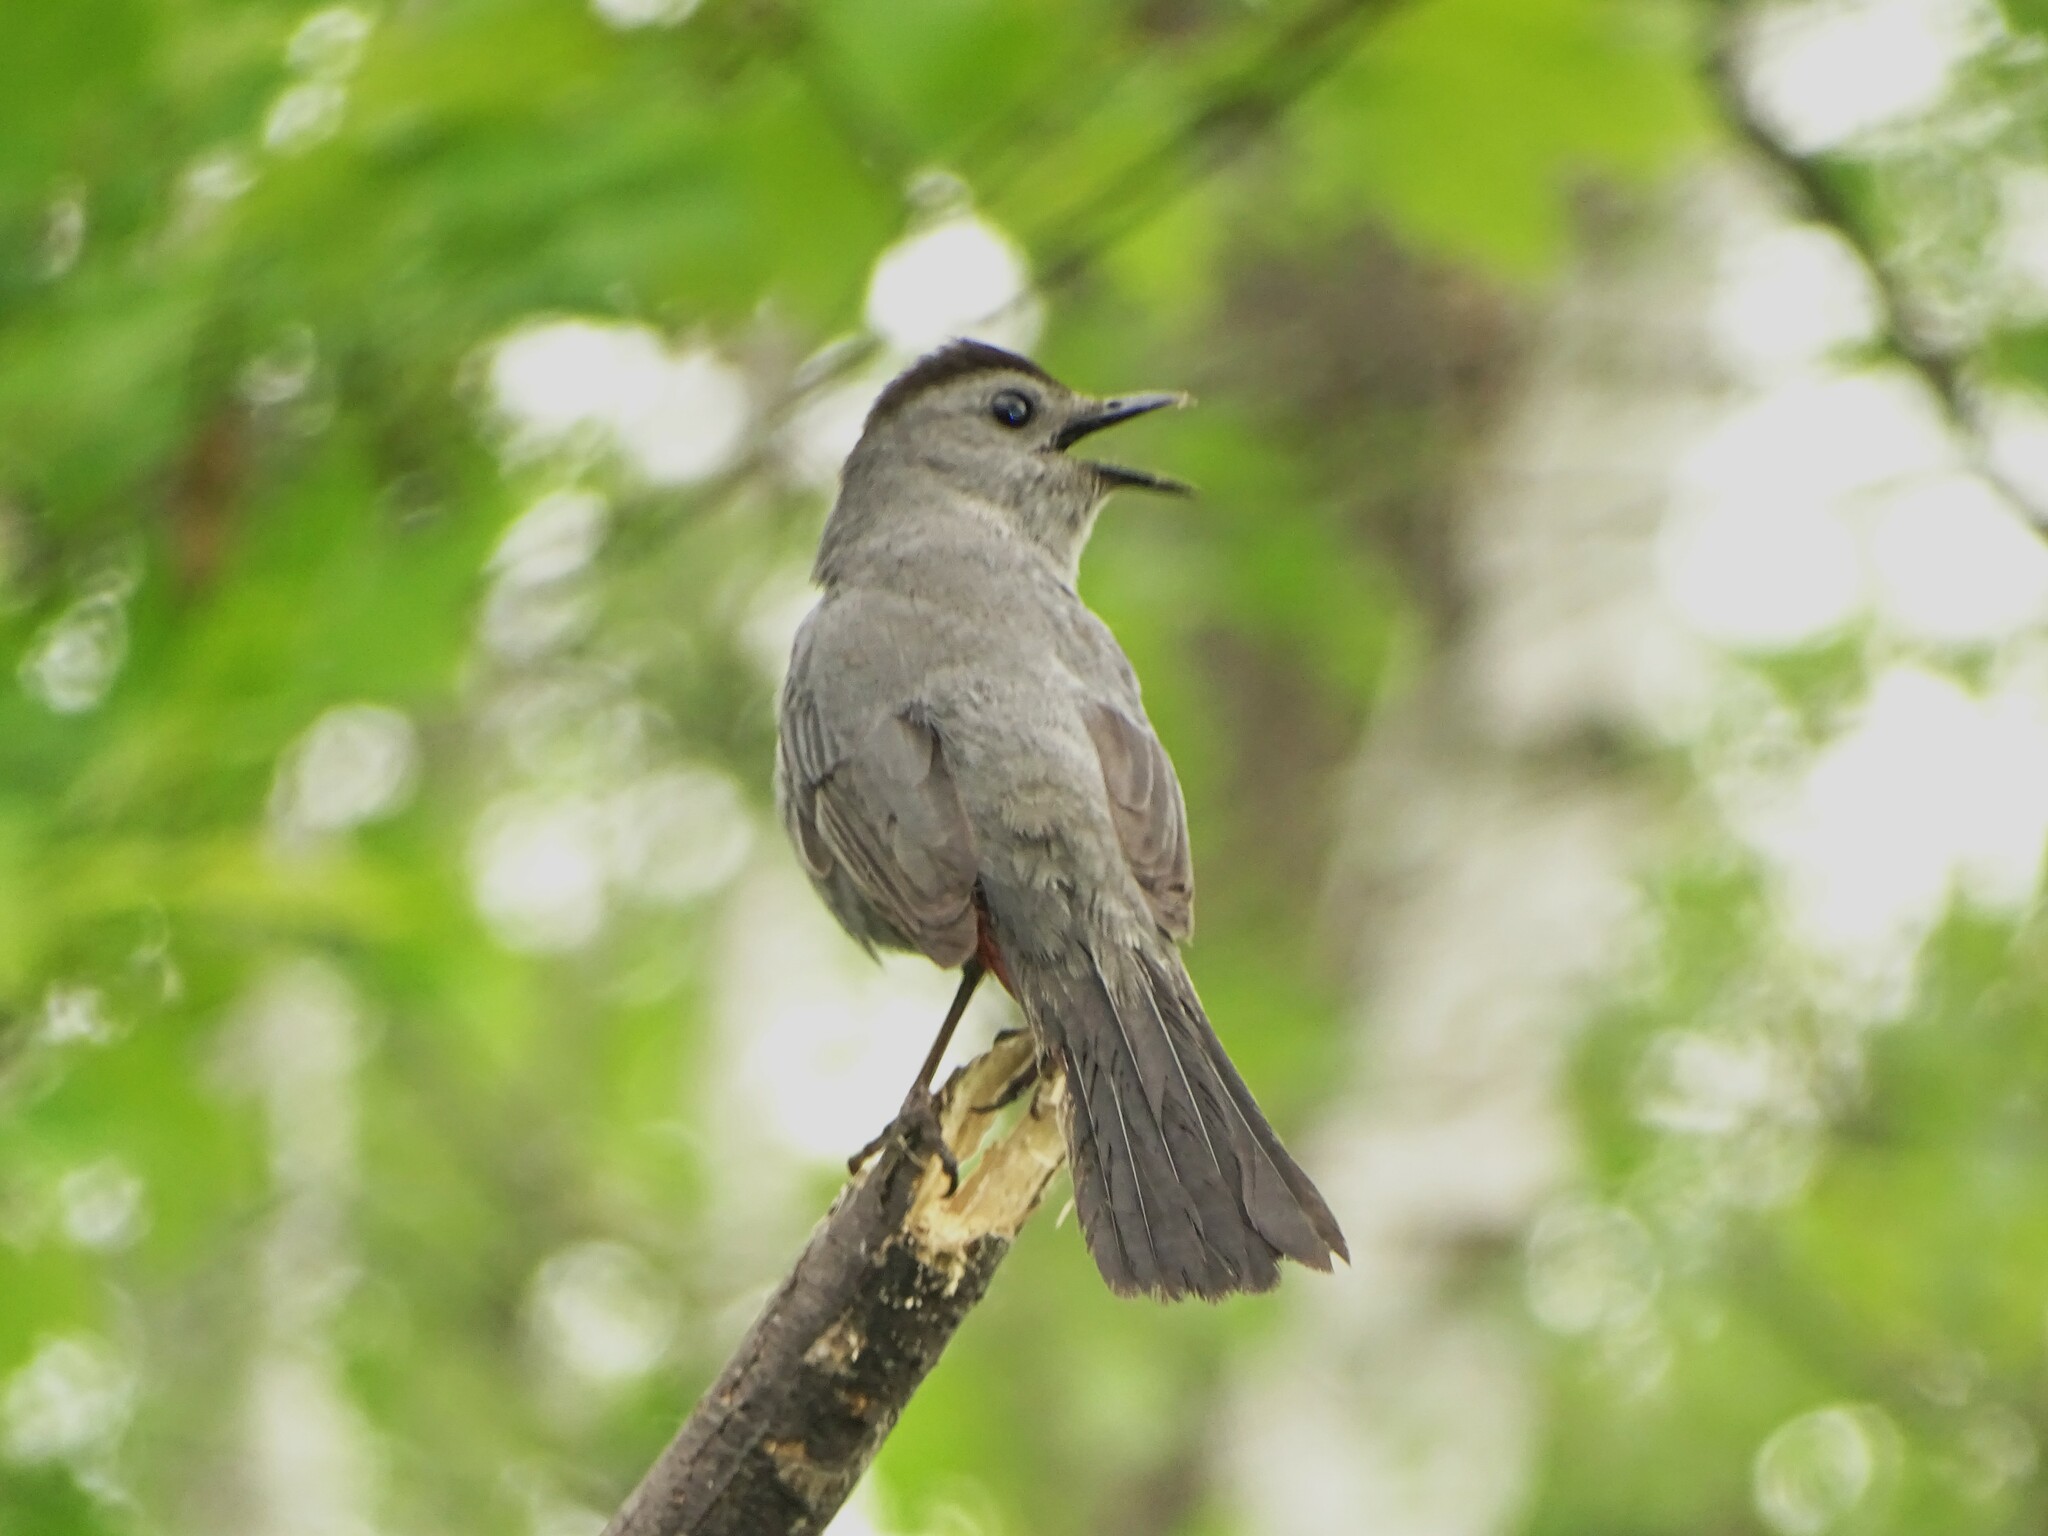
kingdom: Animalia
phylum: Chordata
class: Aves
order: Passeriformes
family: Mimidae
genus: Dumetella
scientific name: Dumetella carolinensis
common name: Gray catbird
